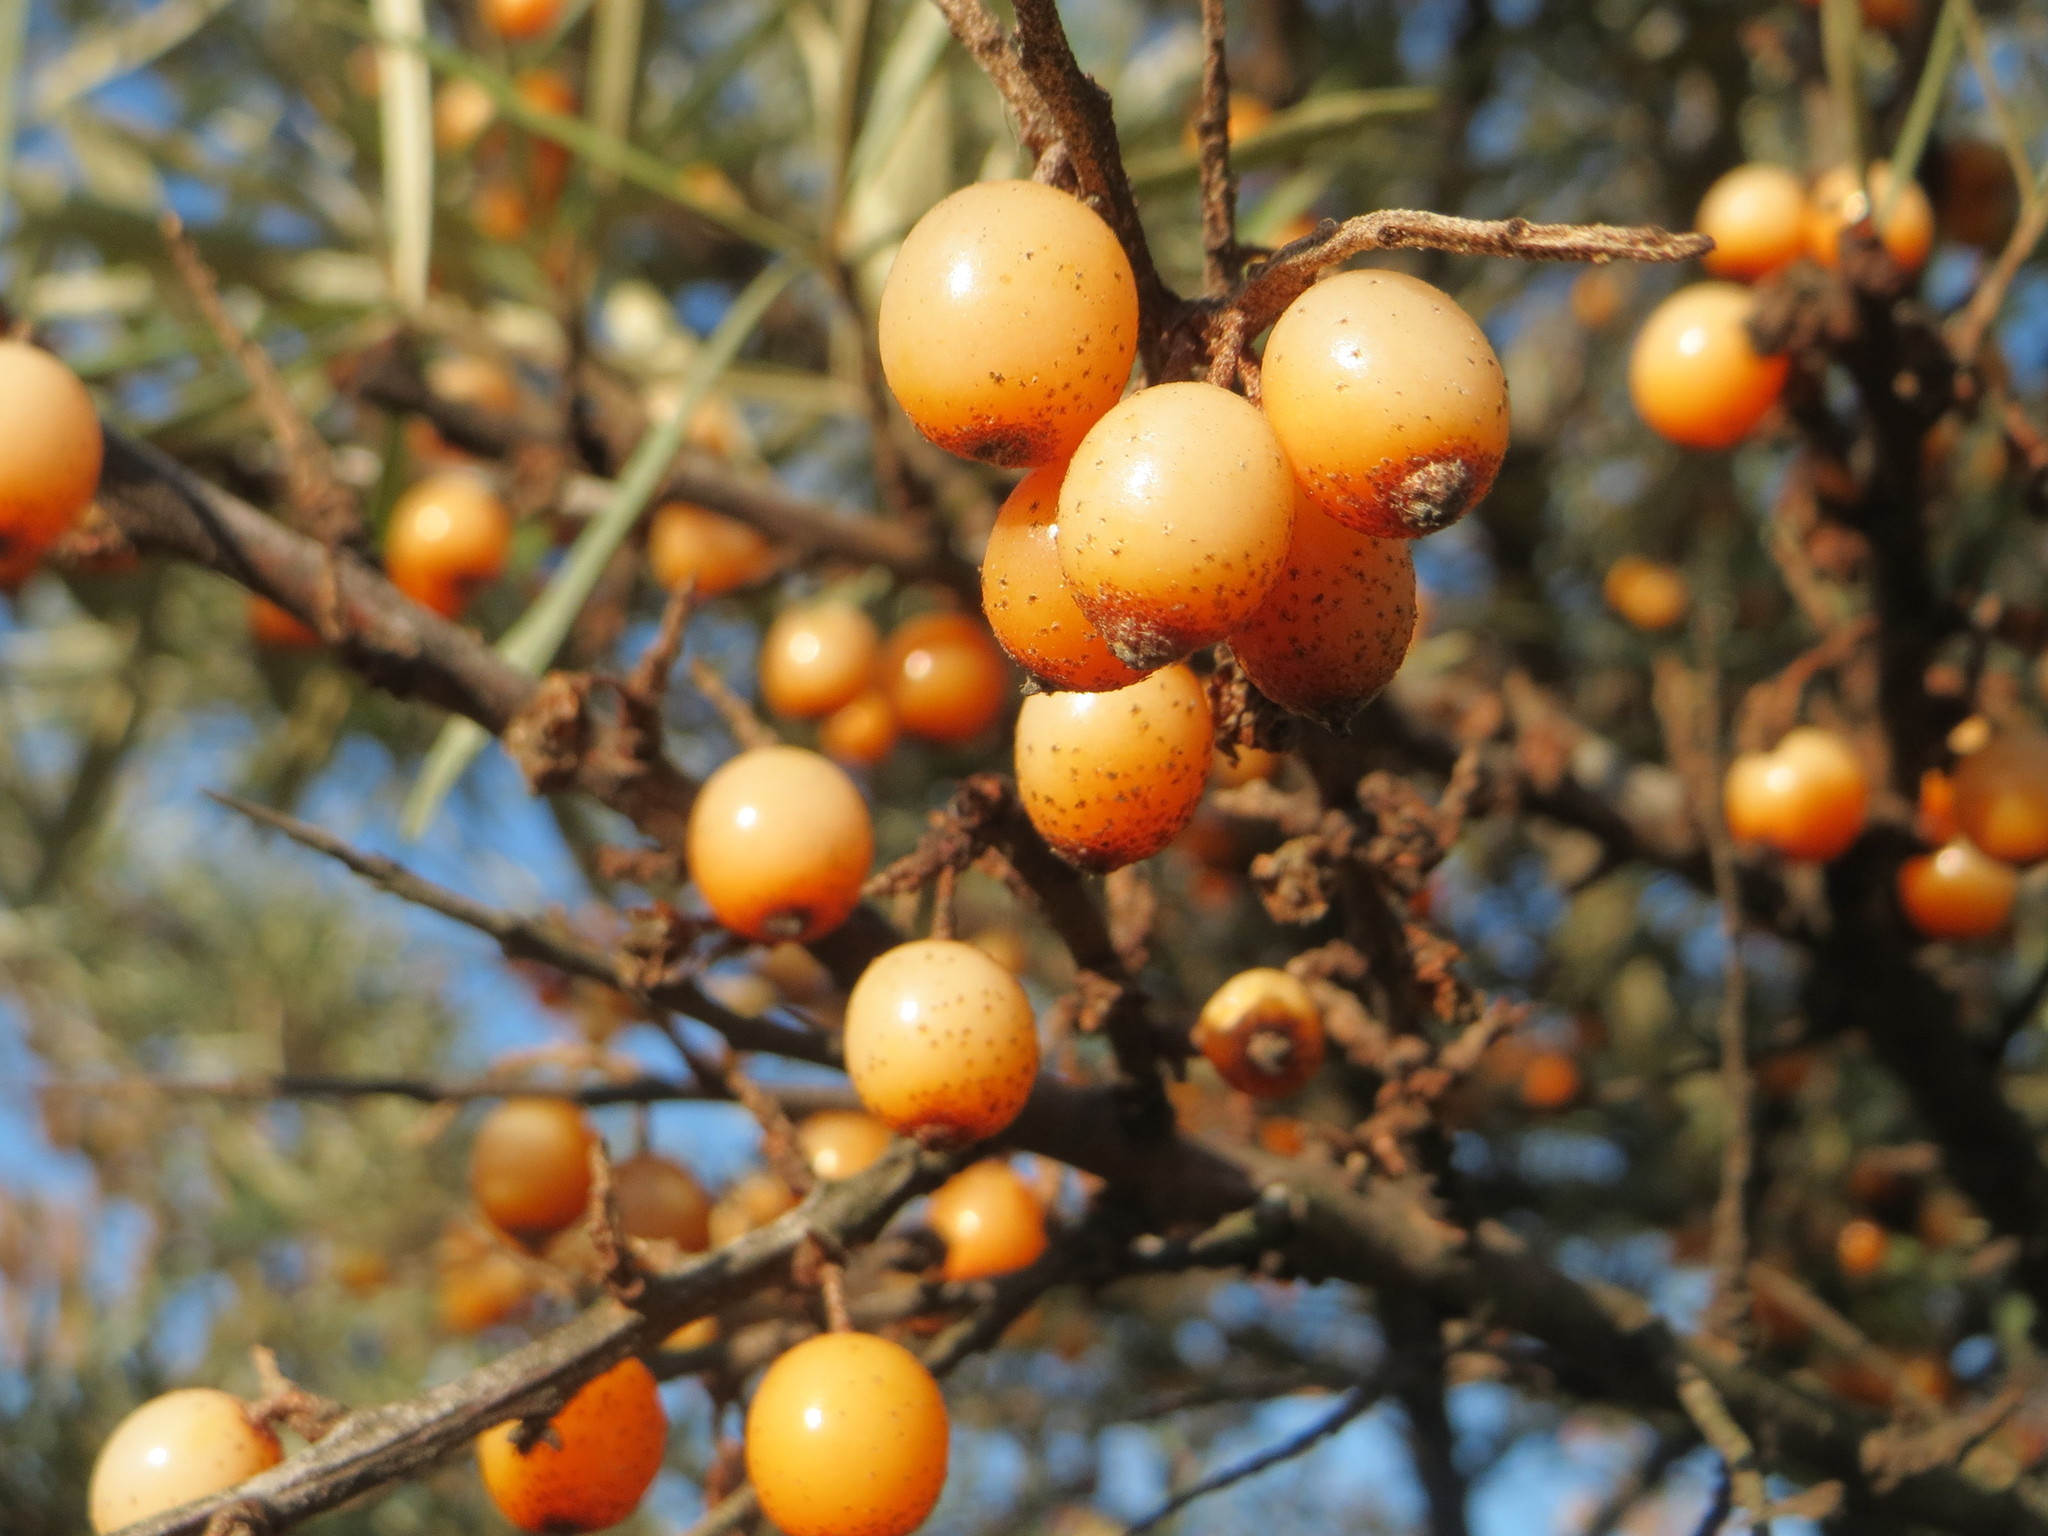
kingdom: Plantae
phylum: Tracheophyta
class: Magnoliopsida
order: Rosales
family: Elaeagnaceae
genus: Hippophae
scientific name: Hippophae rhamnoides
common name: Sea-buckthorn
